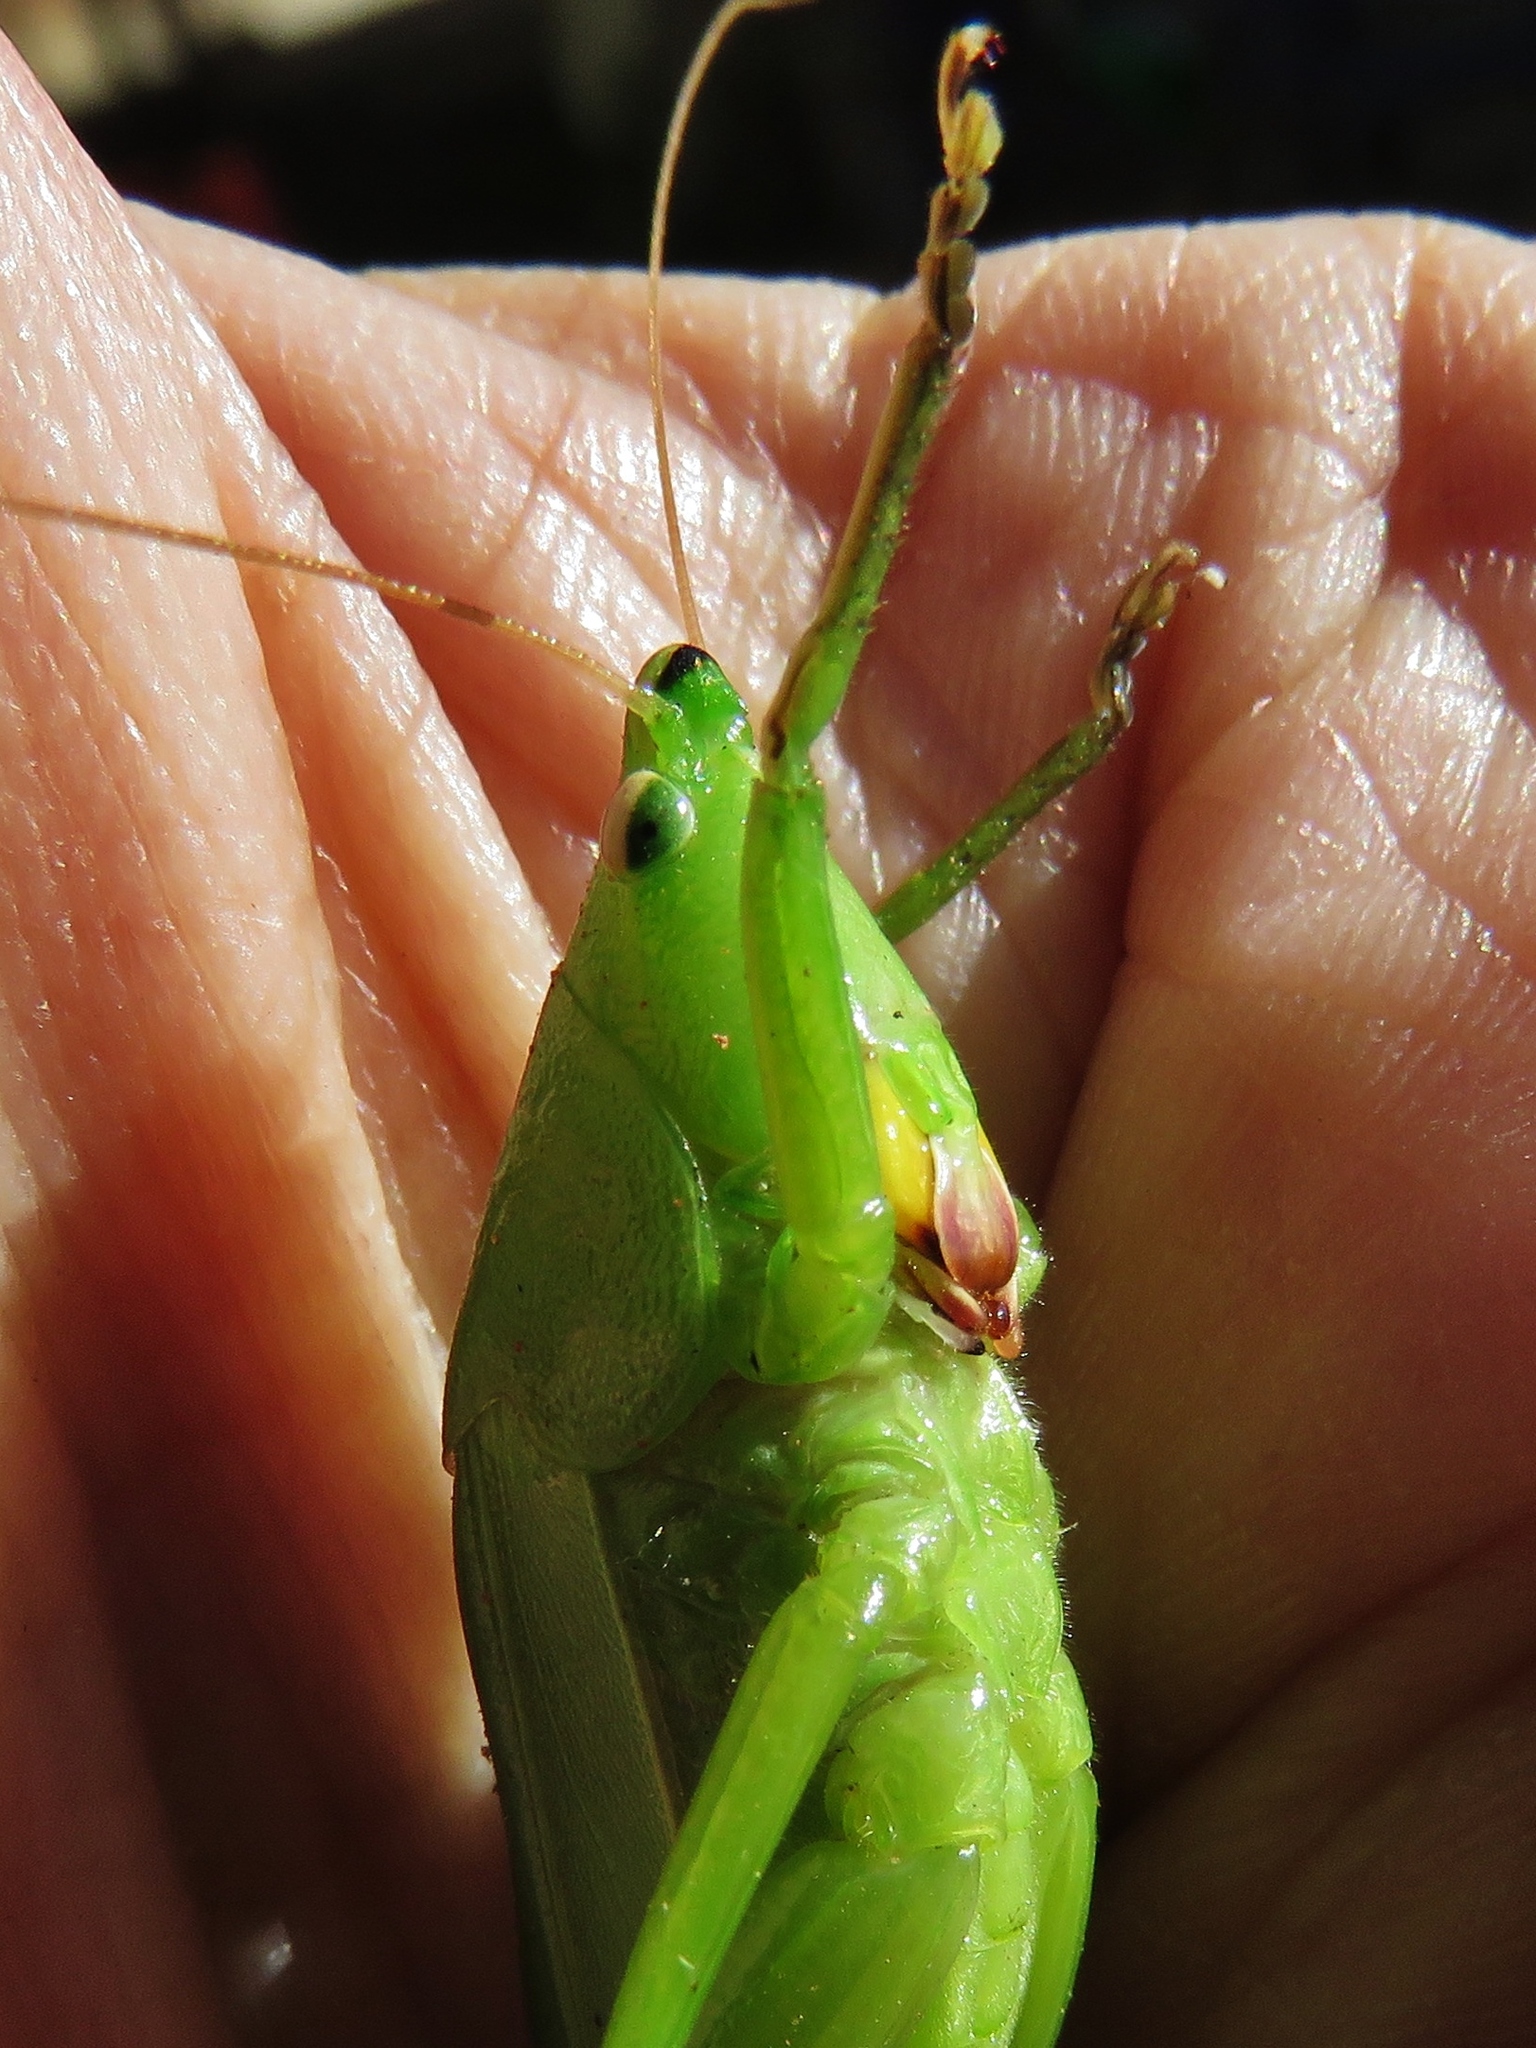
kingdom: Animalia
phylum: Arthropoda
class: Insecta
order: Orthoptera
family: Tettigoniidae
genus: Neoconocephalus
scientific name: Neoconocephalus triops
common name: Broad-tipped conehead
